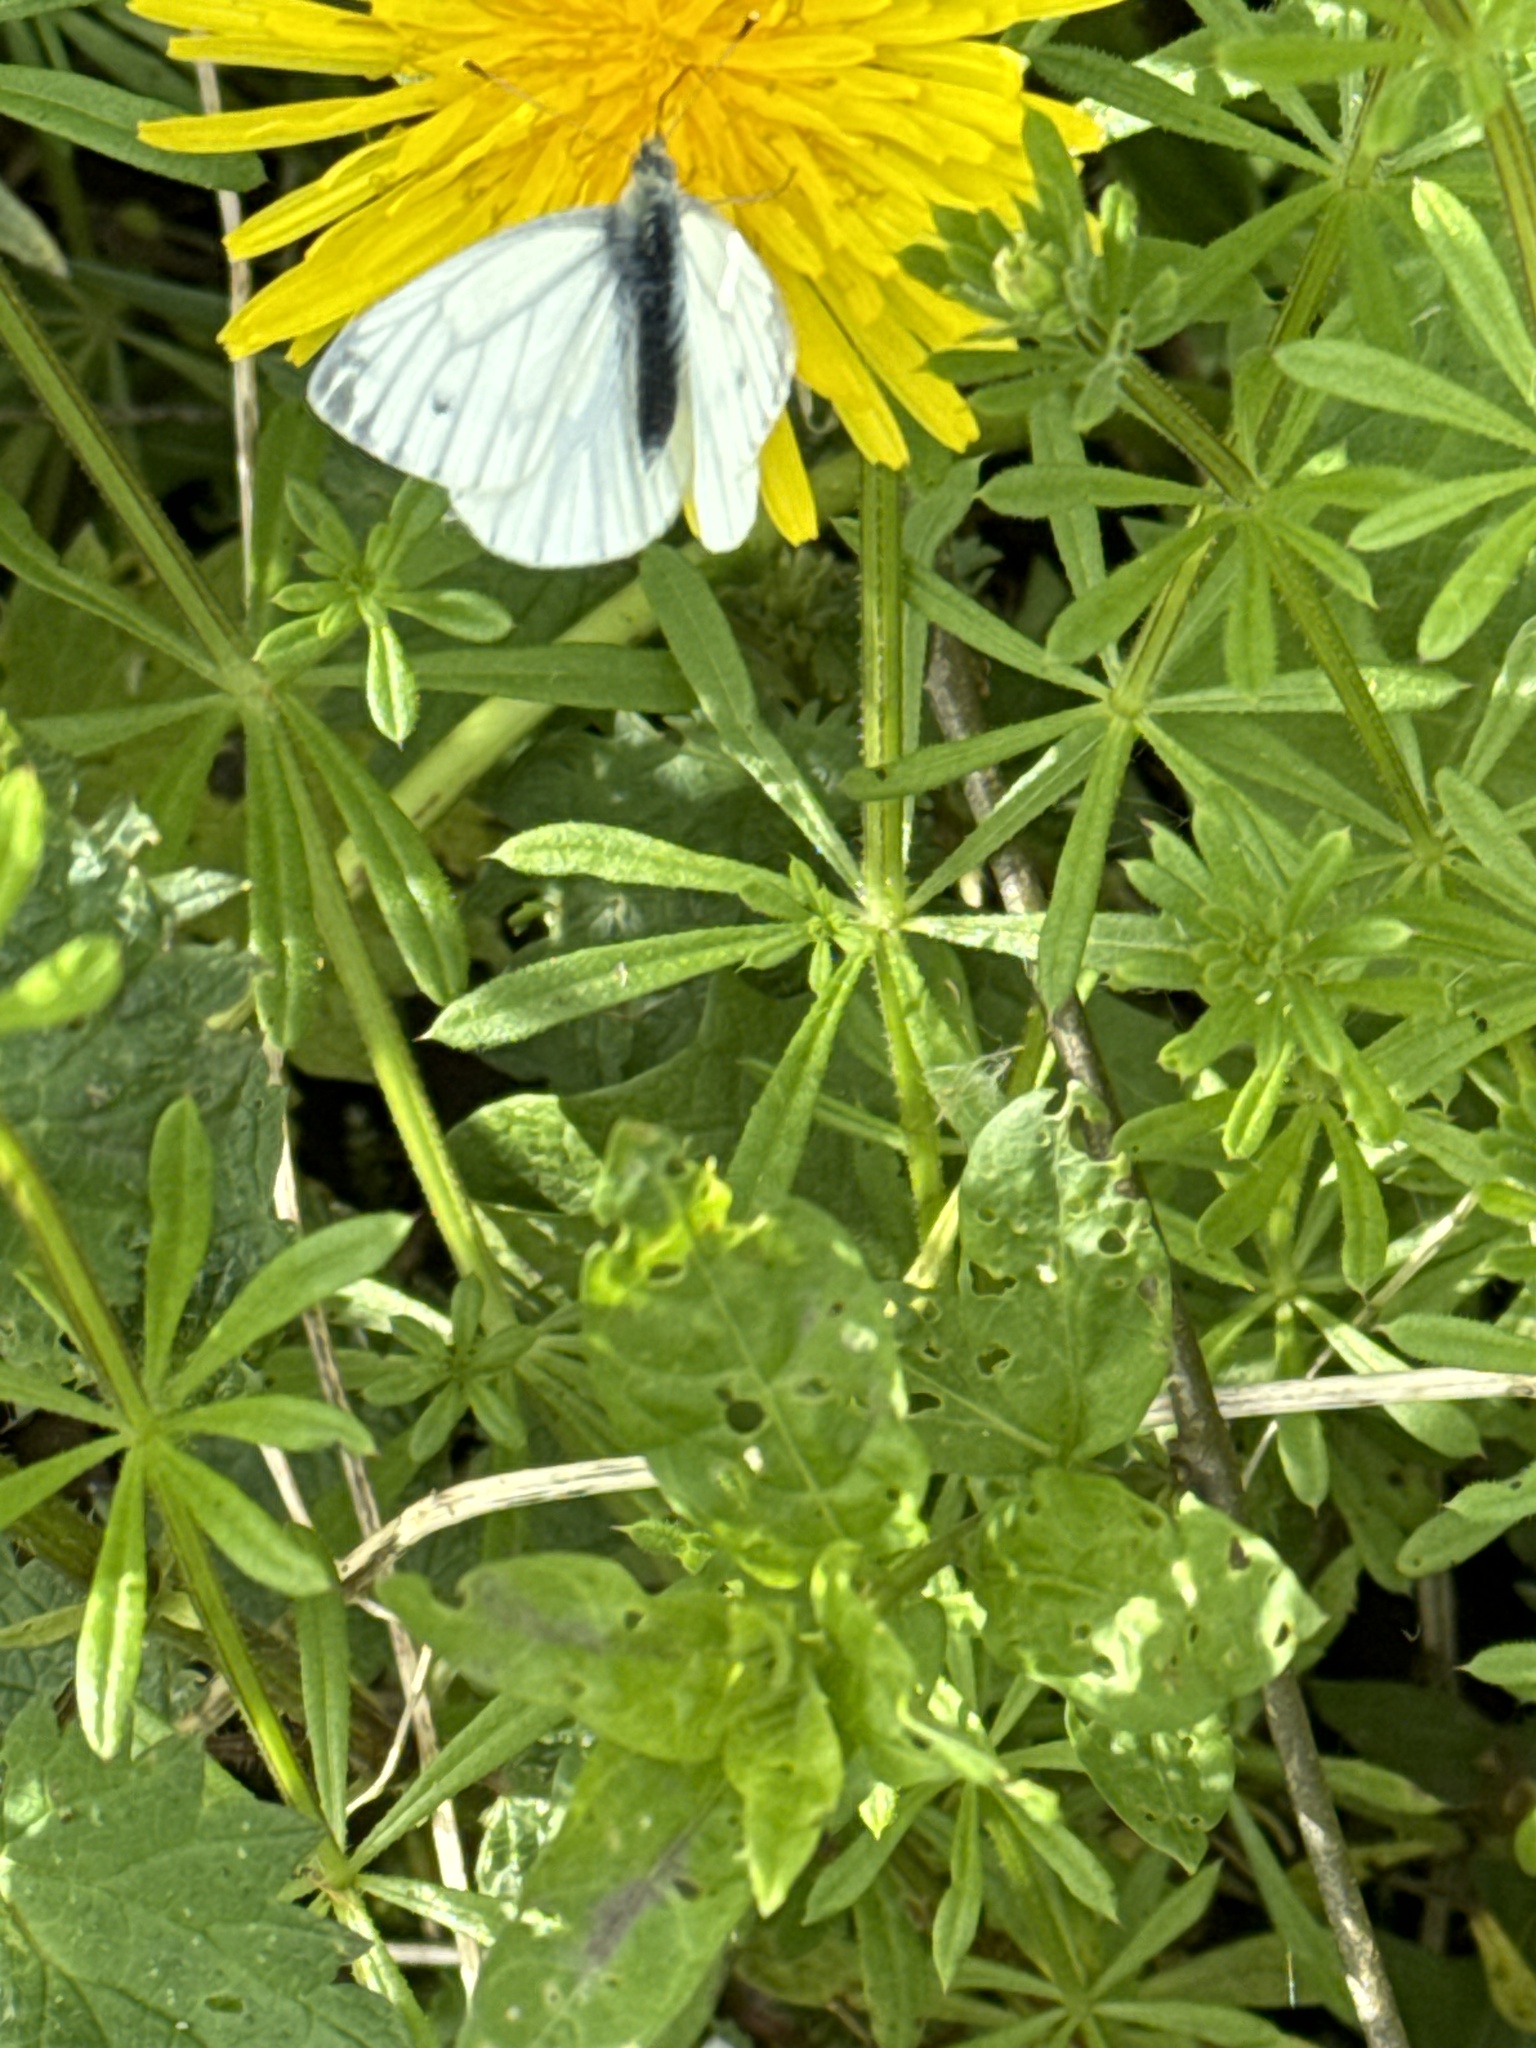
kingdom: Animalia
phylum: Arthropoda
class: Insecta
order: Lepidoptera
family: Pieridae
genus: Pieris
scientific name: Pieris napi
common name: Green-veined white
